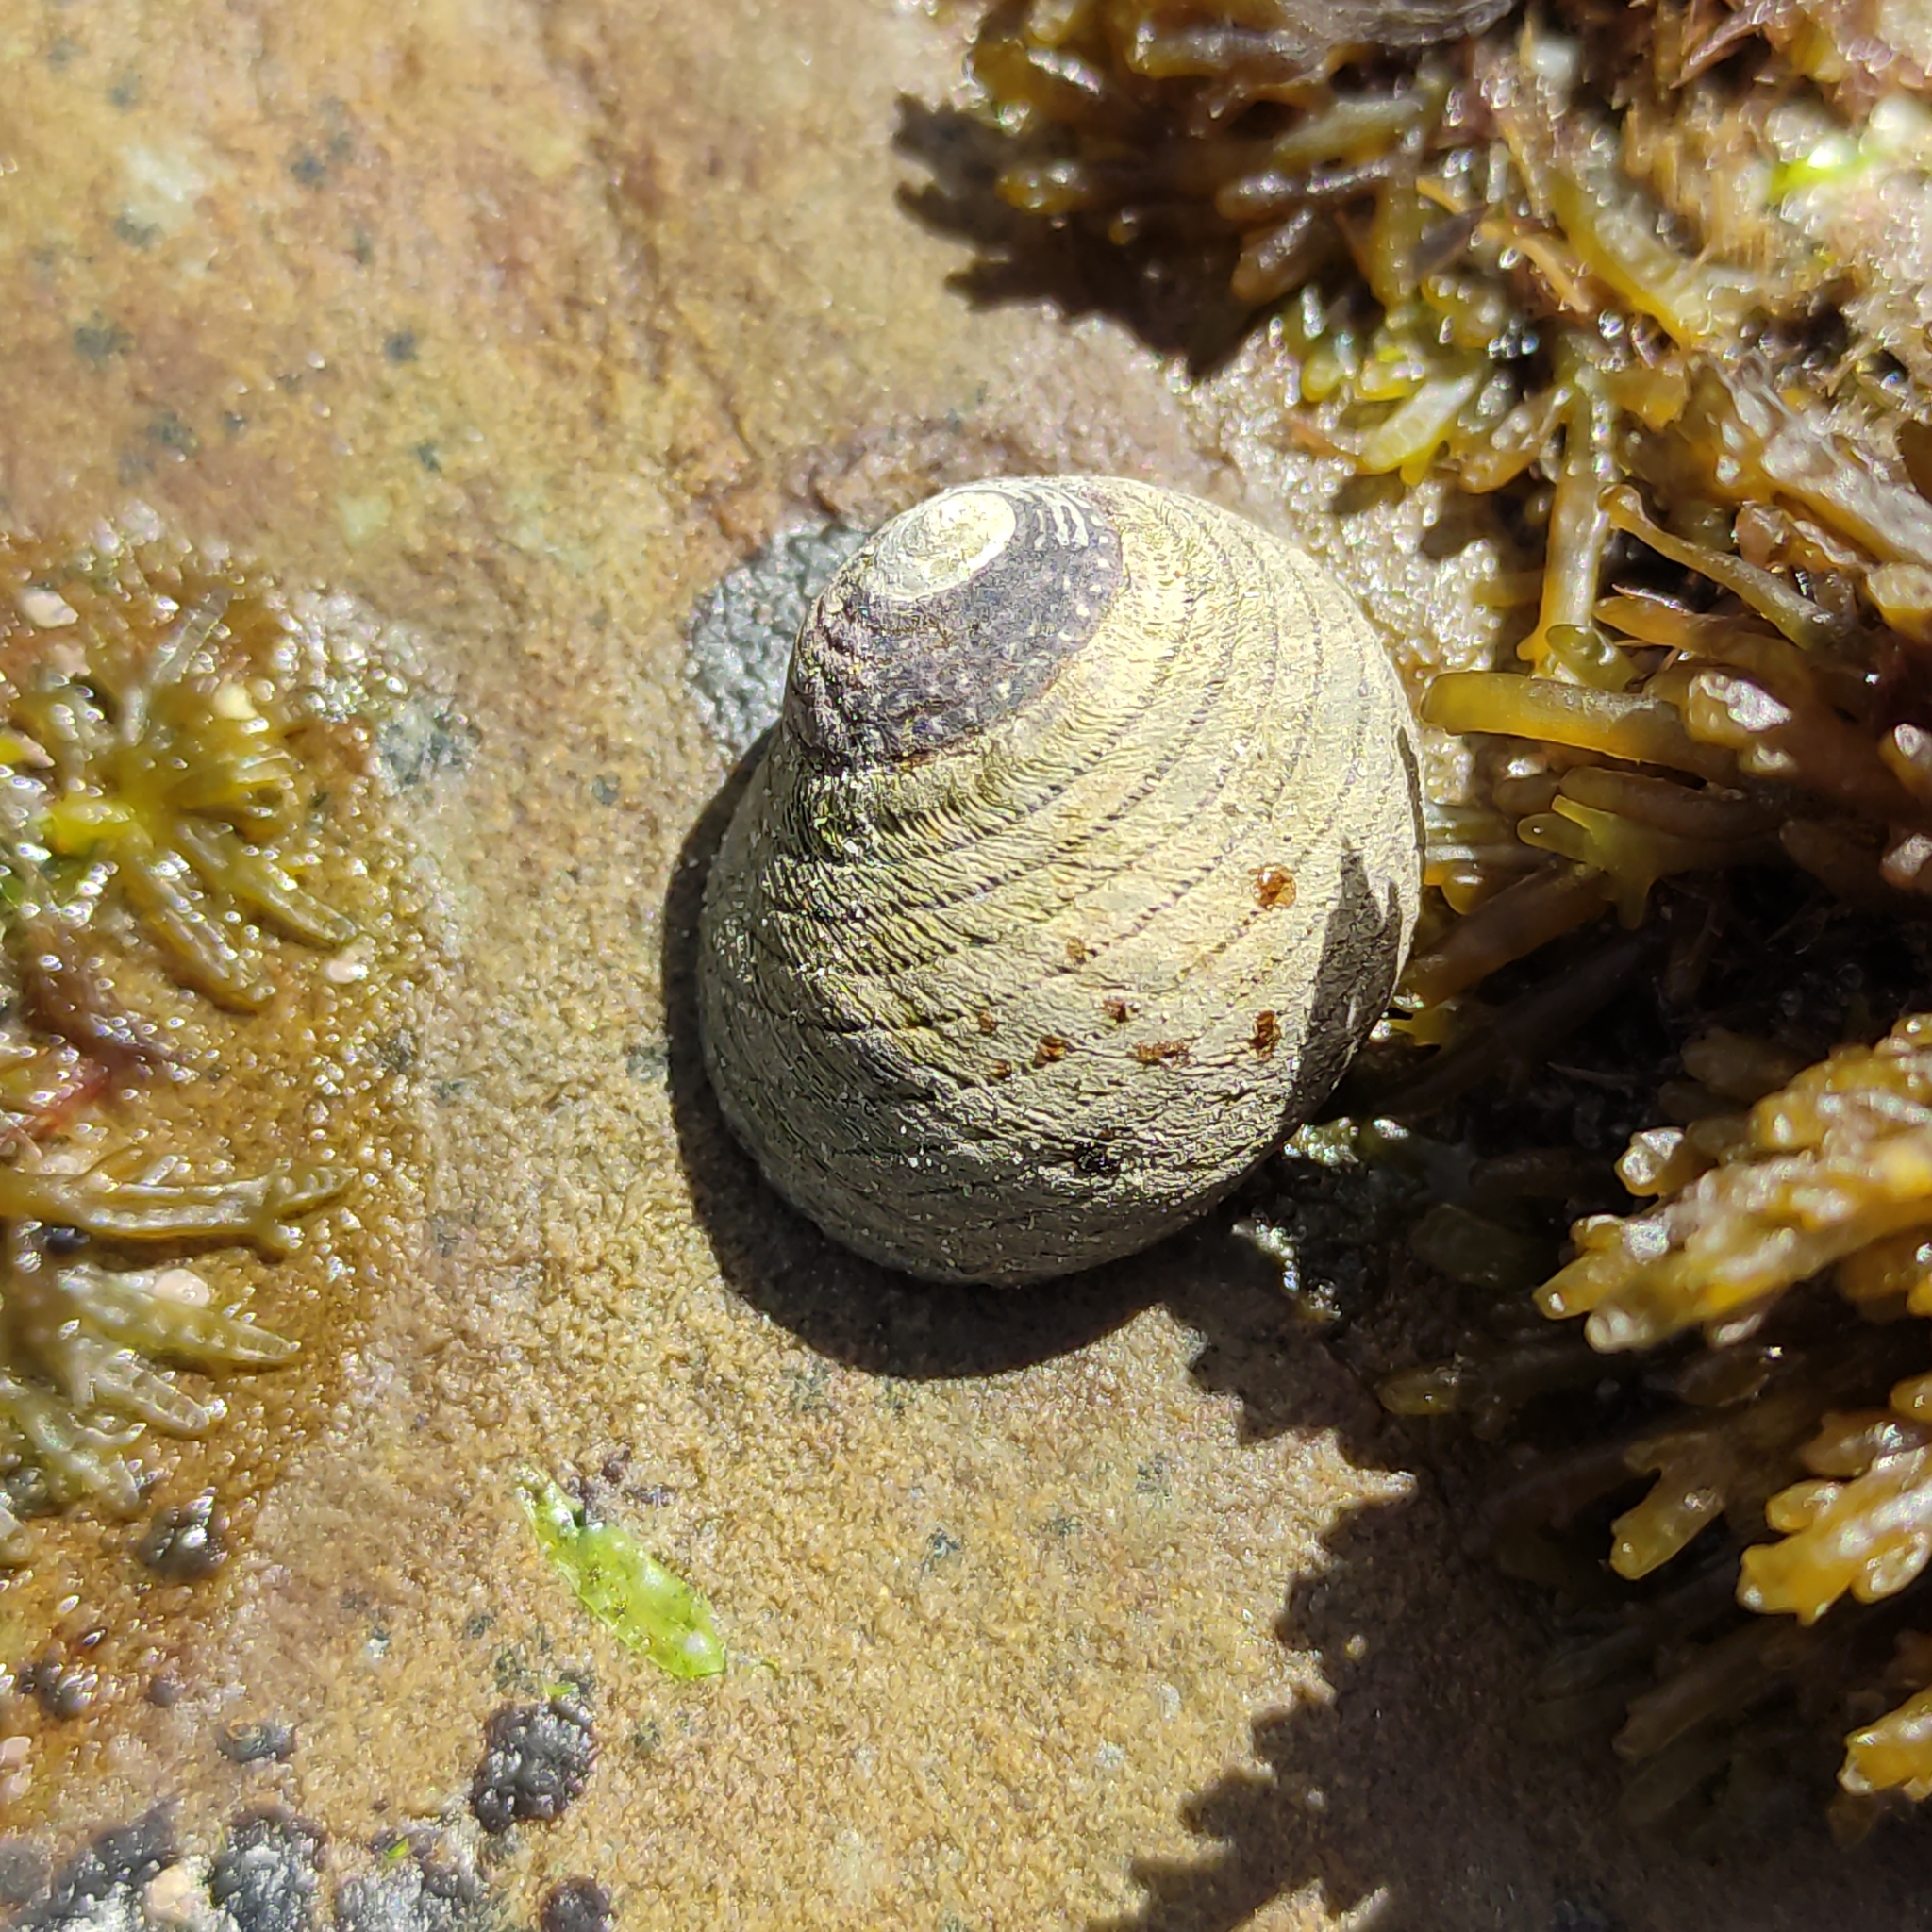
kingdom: Animalia
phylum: Mollusca
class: Gastropoda
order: Trochida
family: Trochidae
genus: Diloma
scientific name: Diloma aethiops
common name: Scorched monodont
